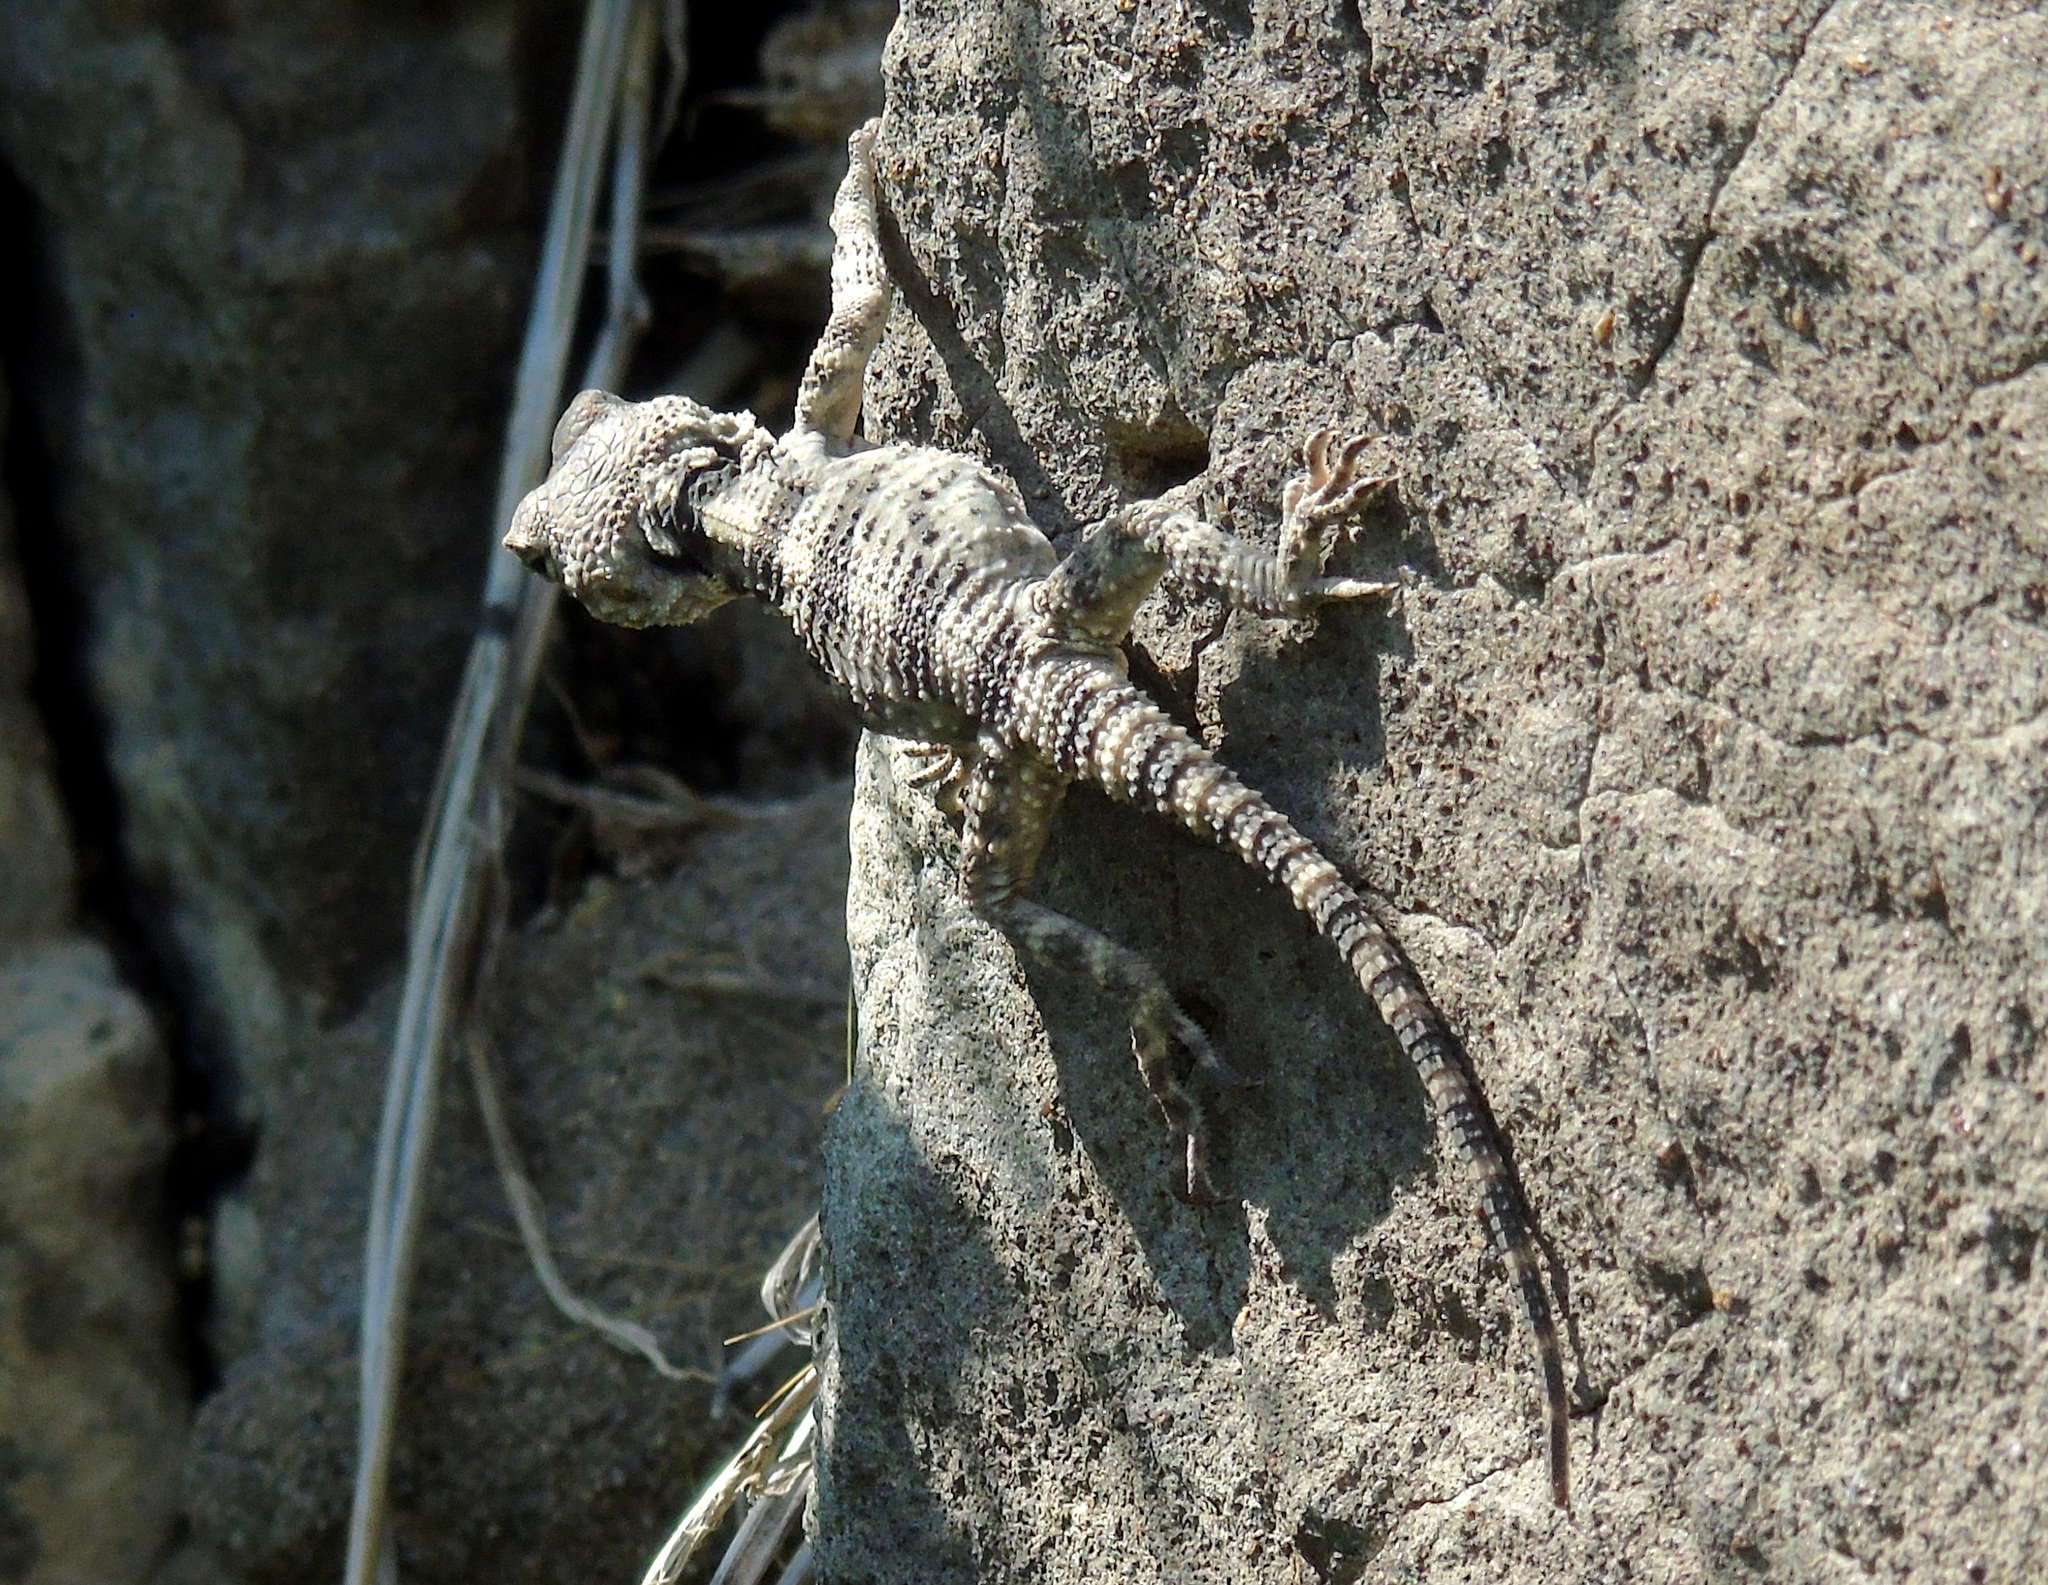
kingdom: Animalia
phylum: Chordata
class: Squamata
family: Agamidae
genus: Stellagama
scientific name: Stellagama stellio
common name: Starred agama
